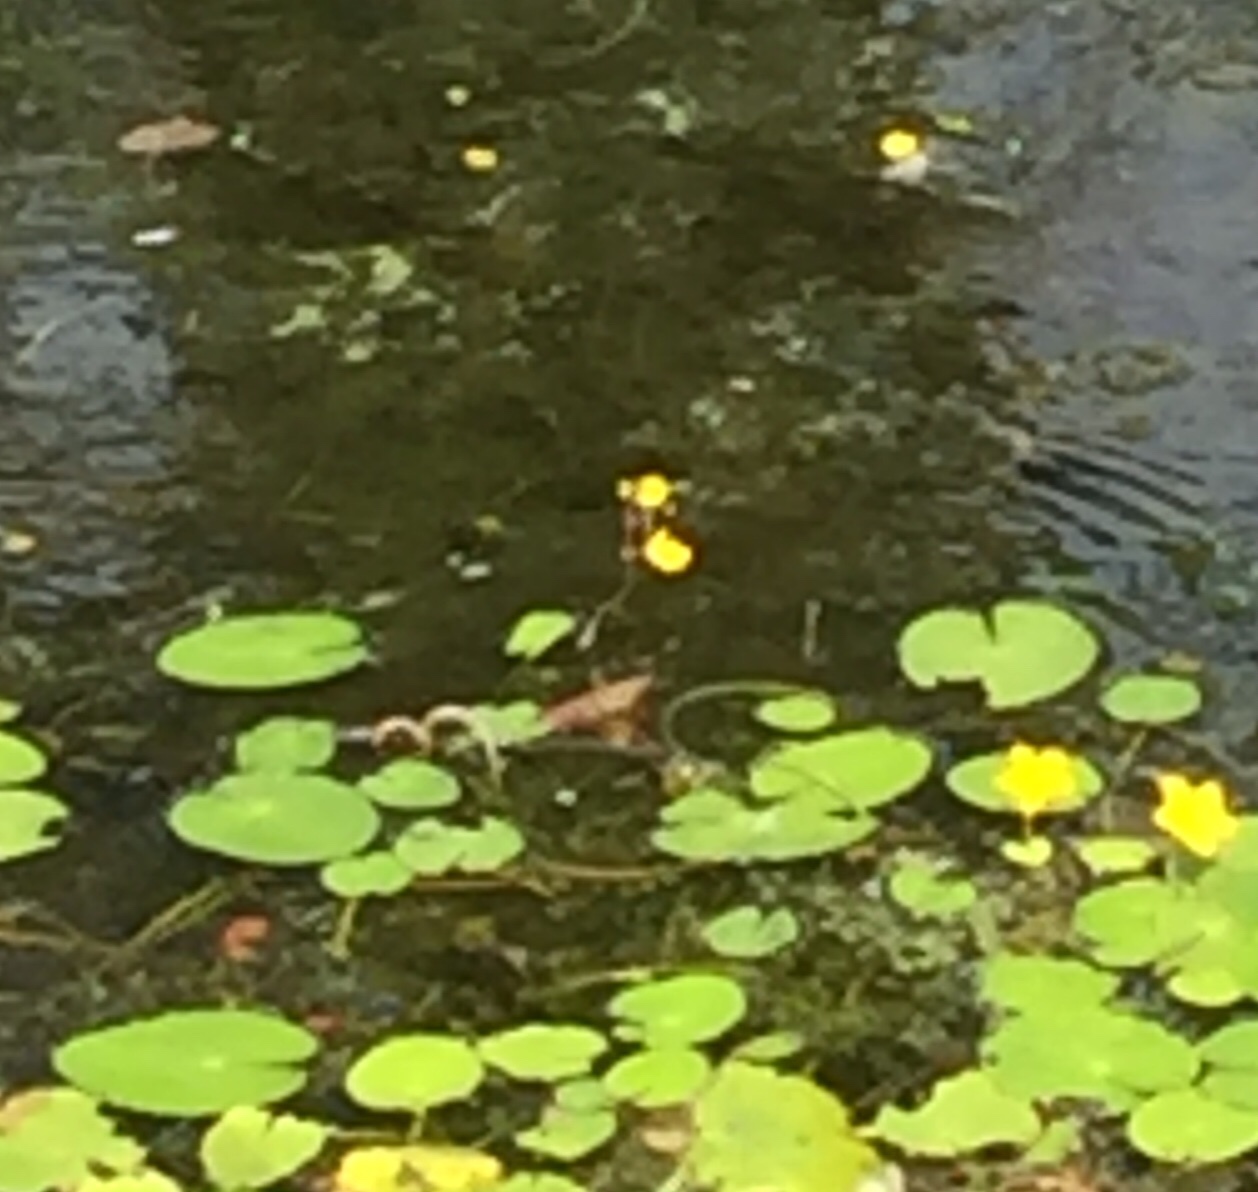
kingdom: Plantae
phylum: Tracheophyta
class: Magnoliopsida
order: Lamiales
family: Lentibulariaceae
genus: Utricularia
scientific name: Utricularia vulgaris
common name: Greater bladderwort
